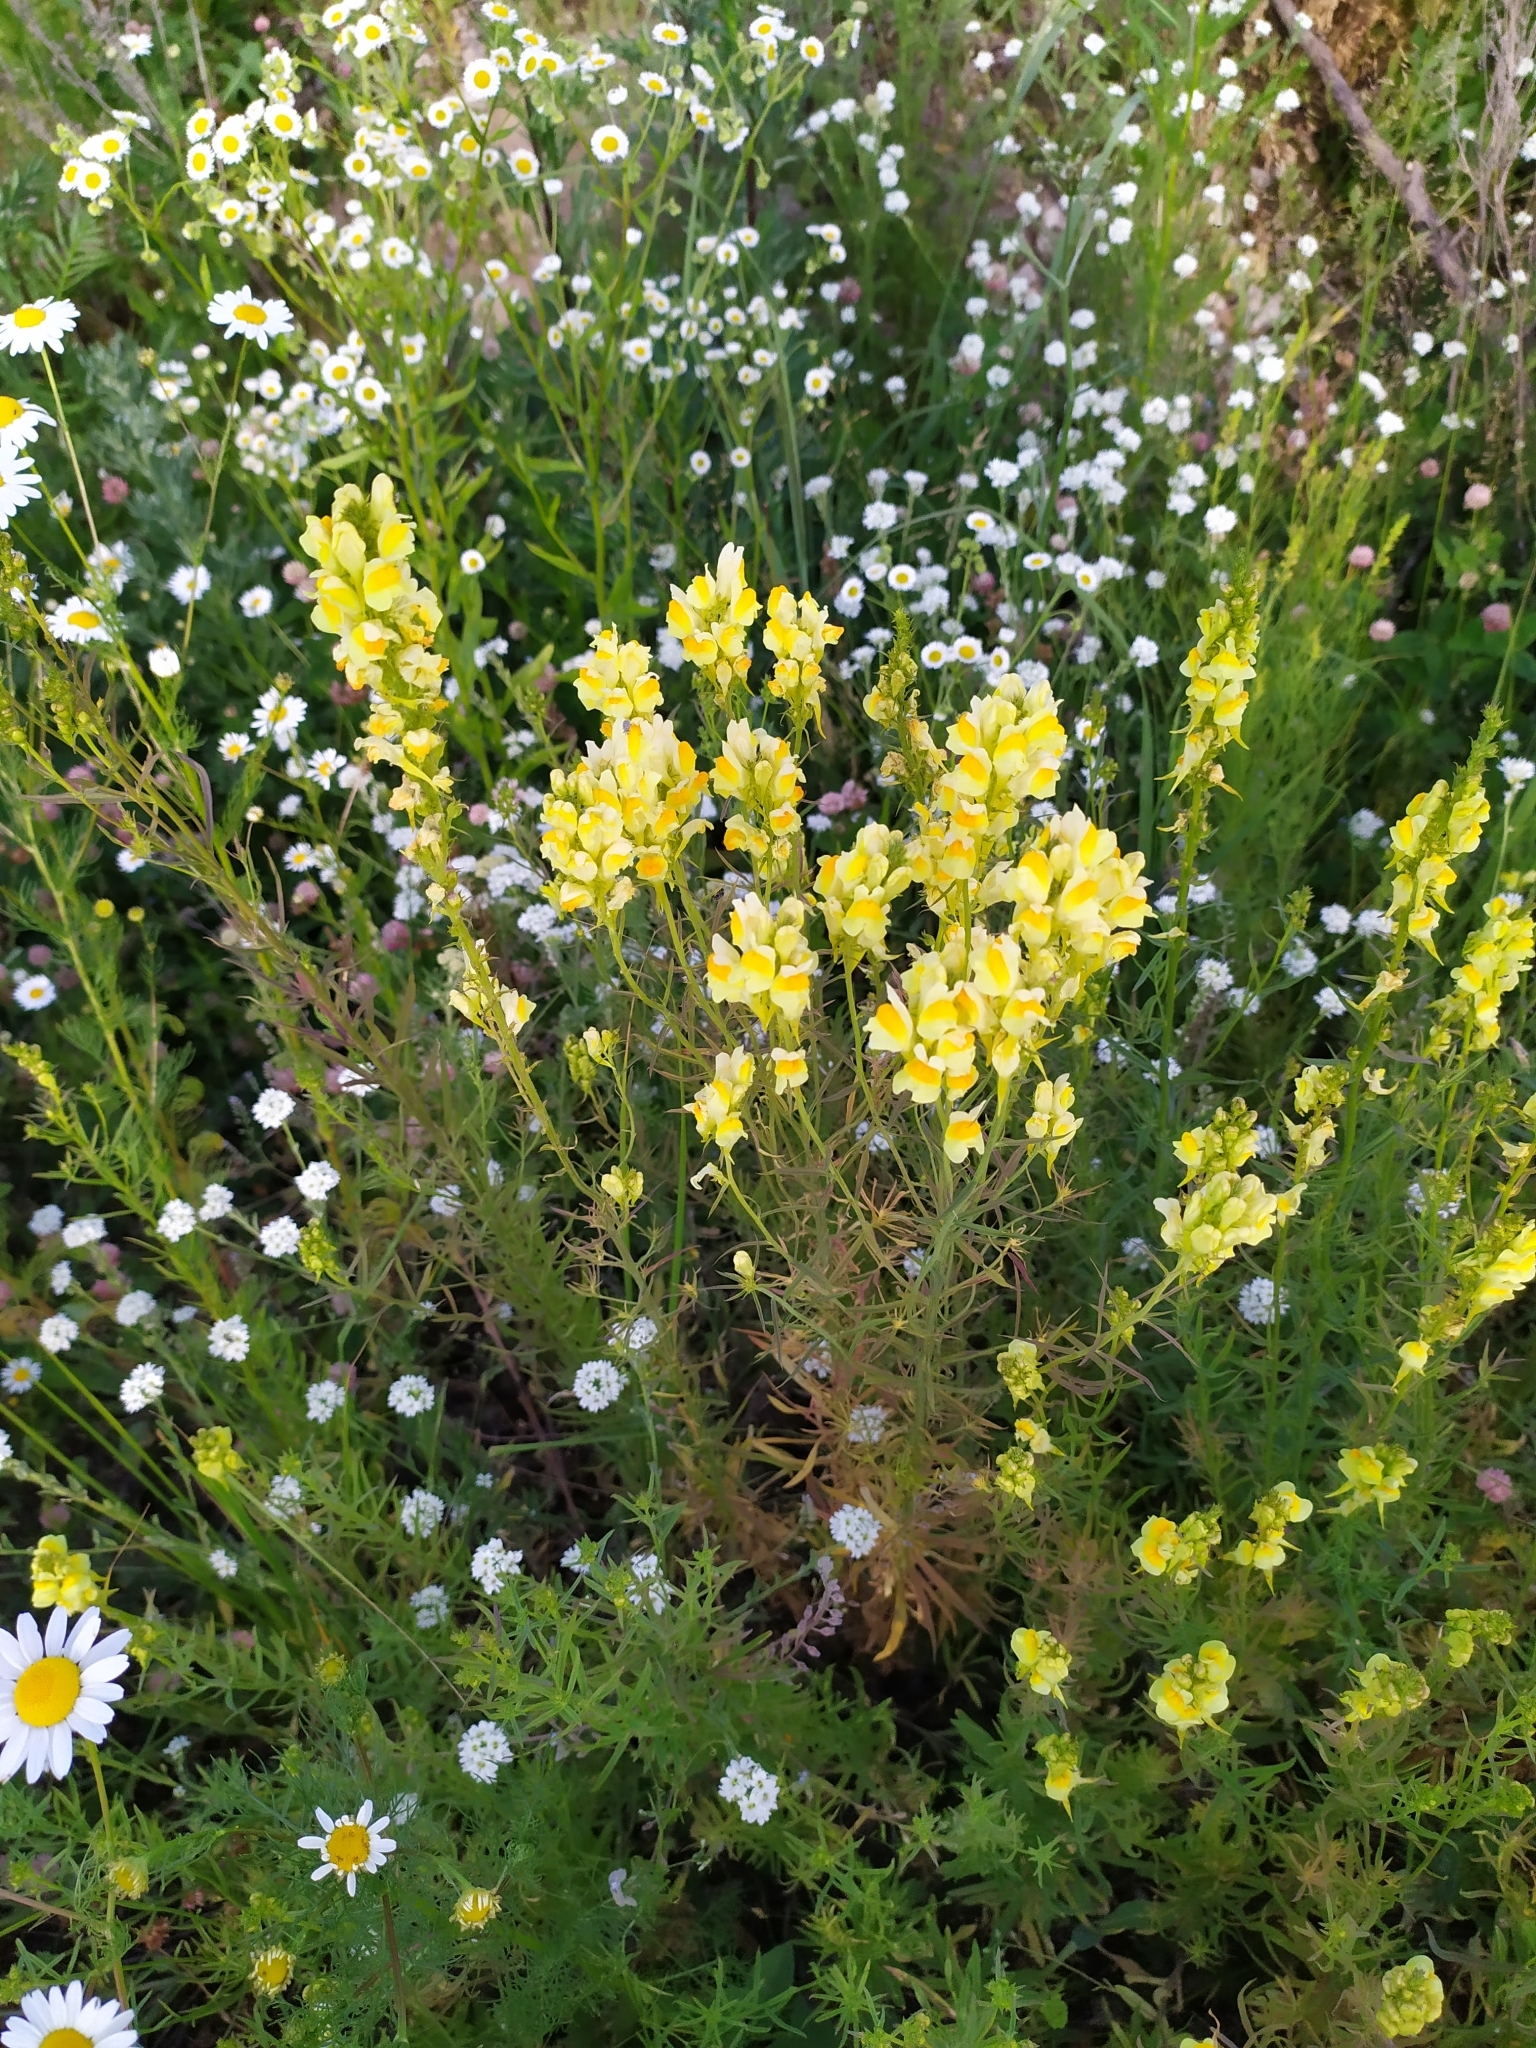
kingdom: Plantae
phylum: Tracheophyta
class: Magnoliopsida
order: Lamiales
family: Plantaginaceae
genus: Linaria
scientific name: Linaria vulgaris
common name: Butter and eggs
